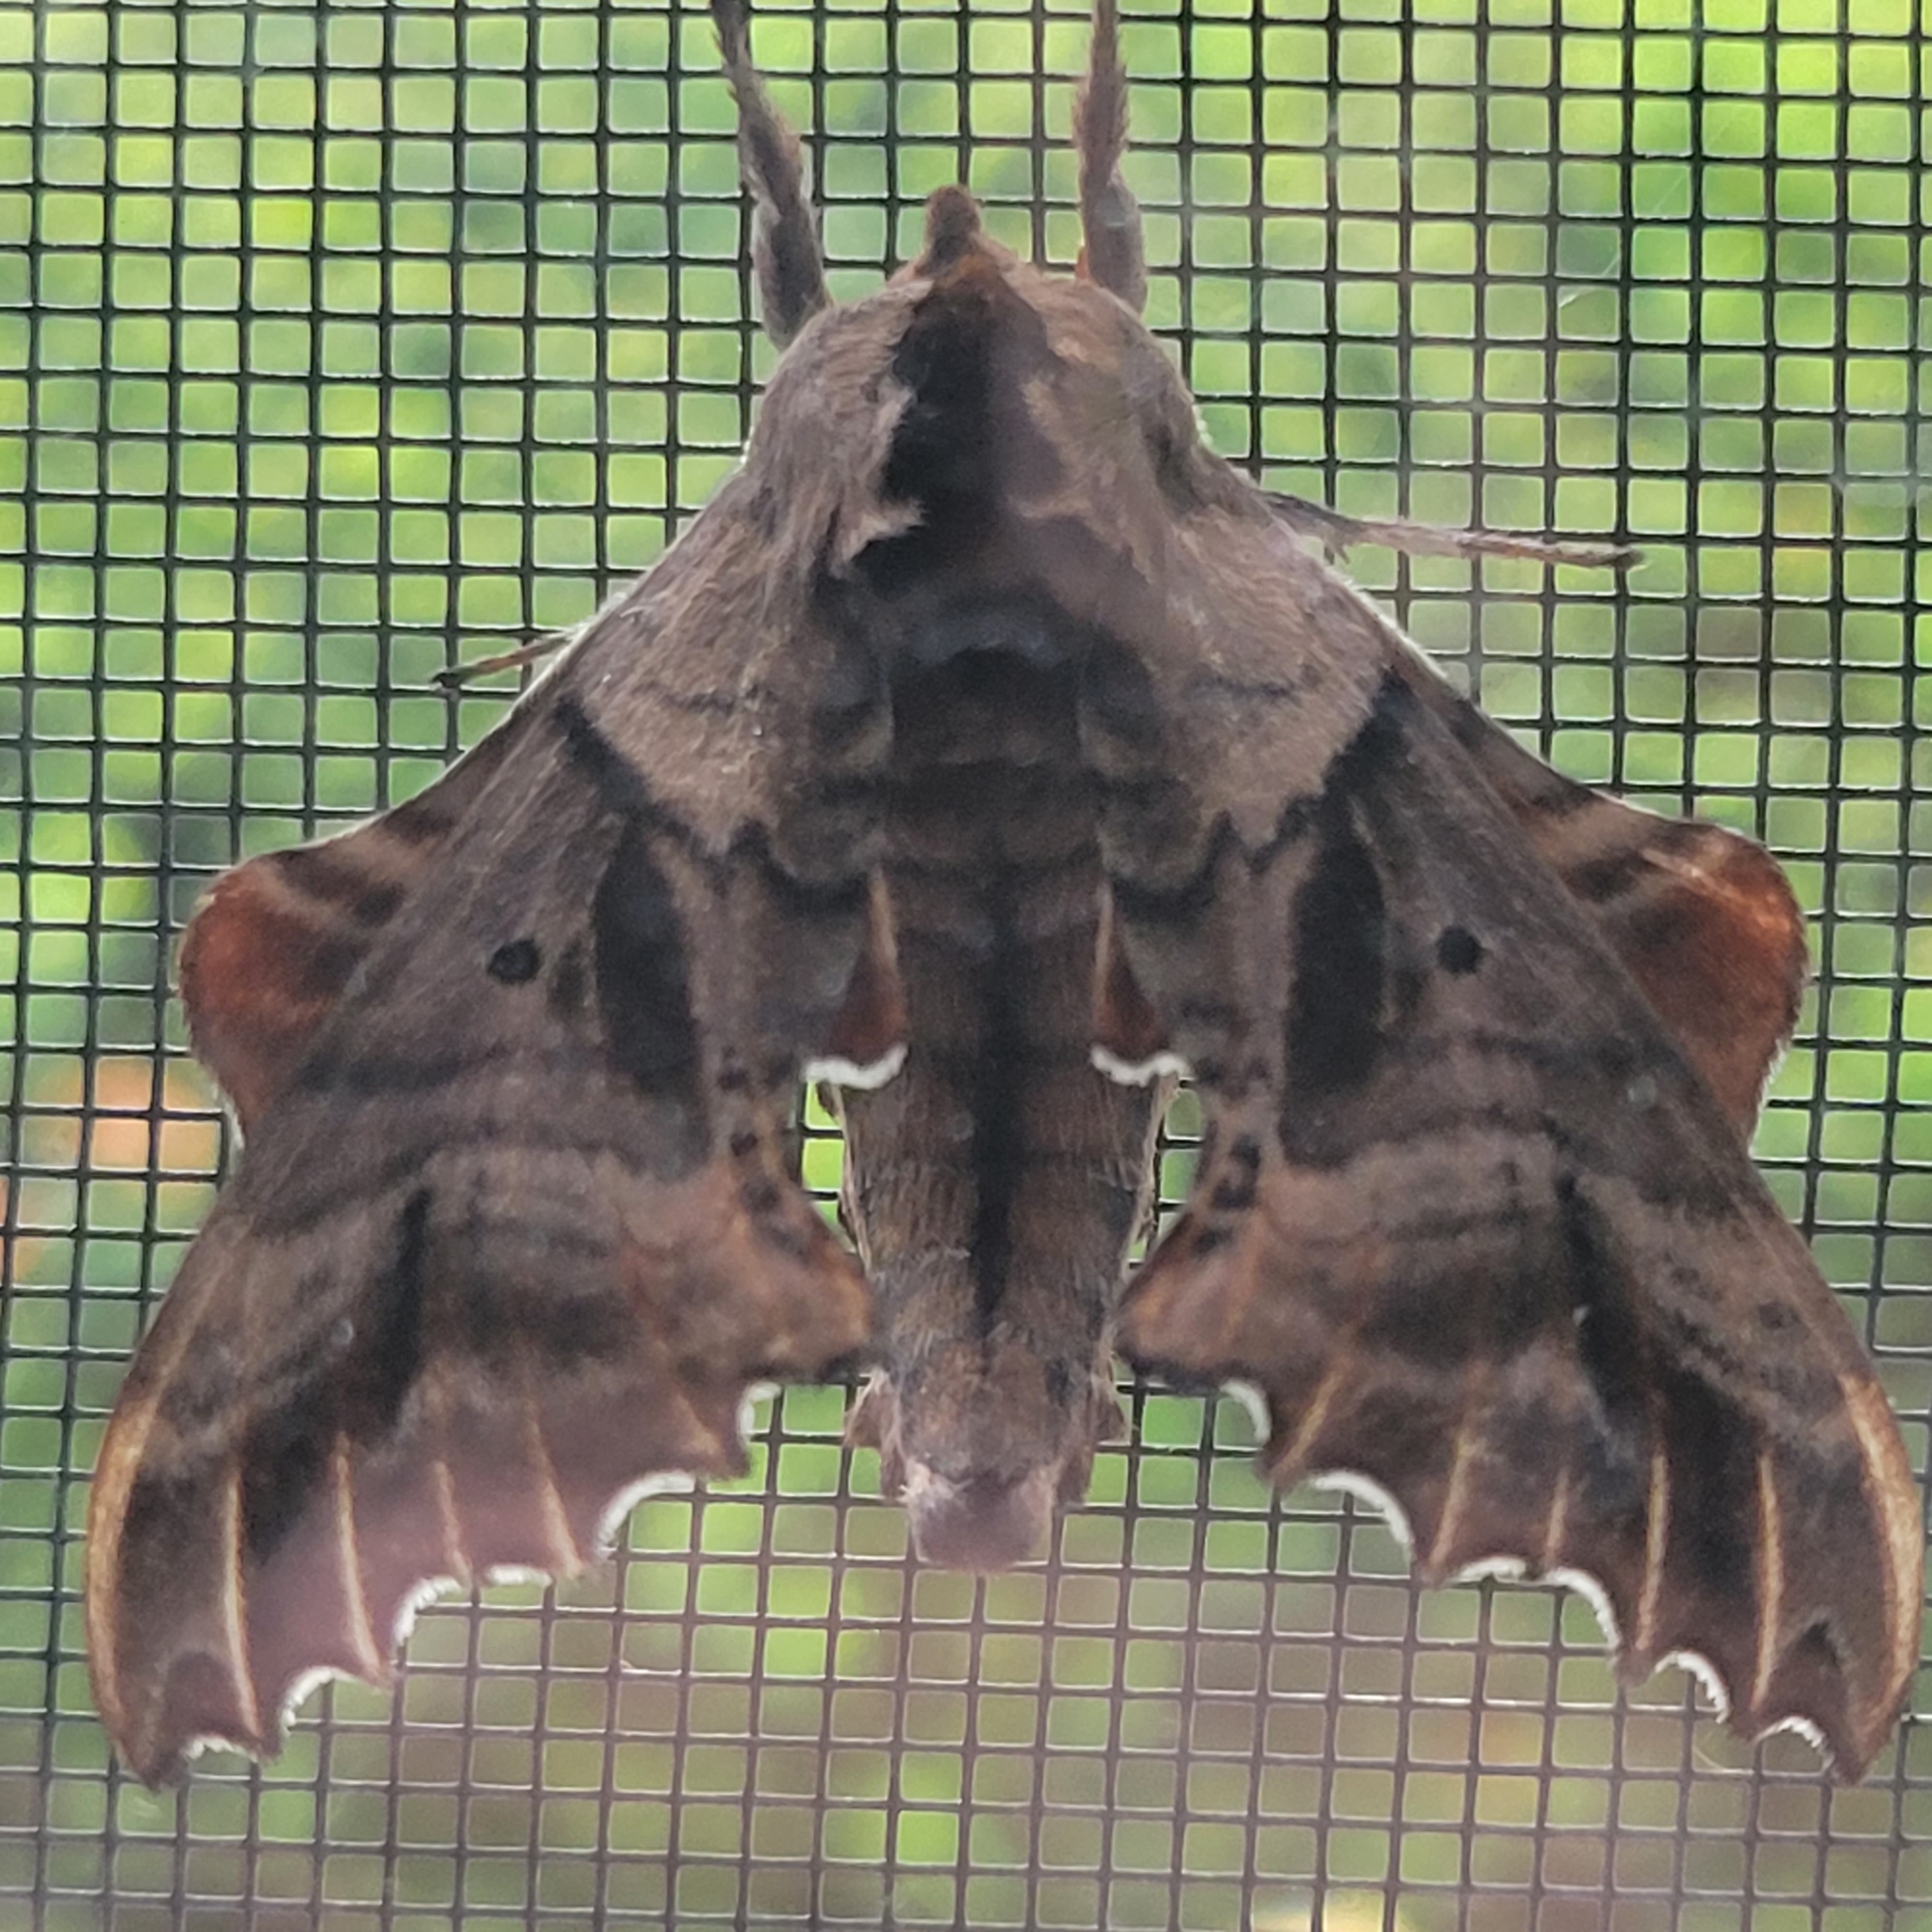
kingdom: Animalia
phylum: Arthropoda
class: Insecta
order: Lepidoptera
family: Sphingidae
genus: Paonias
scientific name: Paonias excaecata
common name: Blind-eyed sphinx
